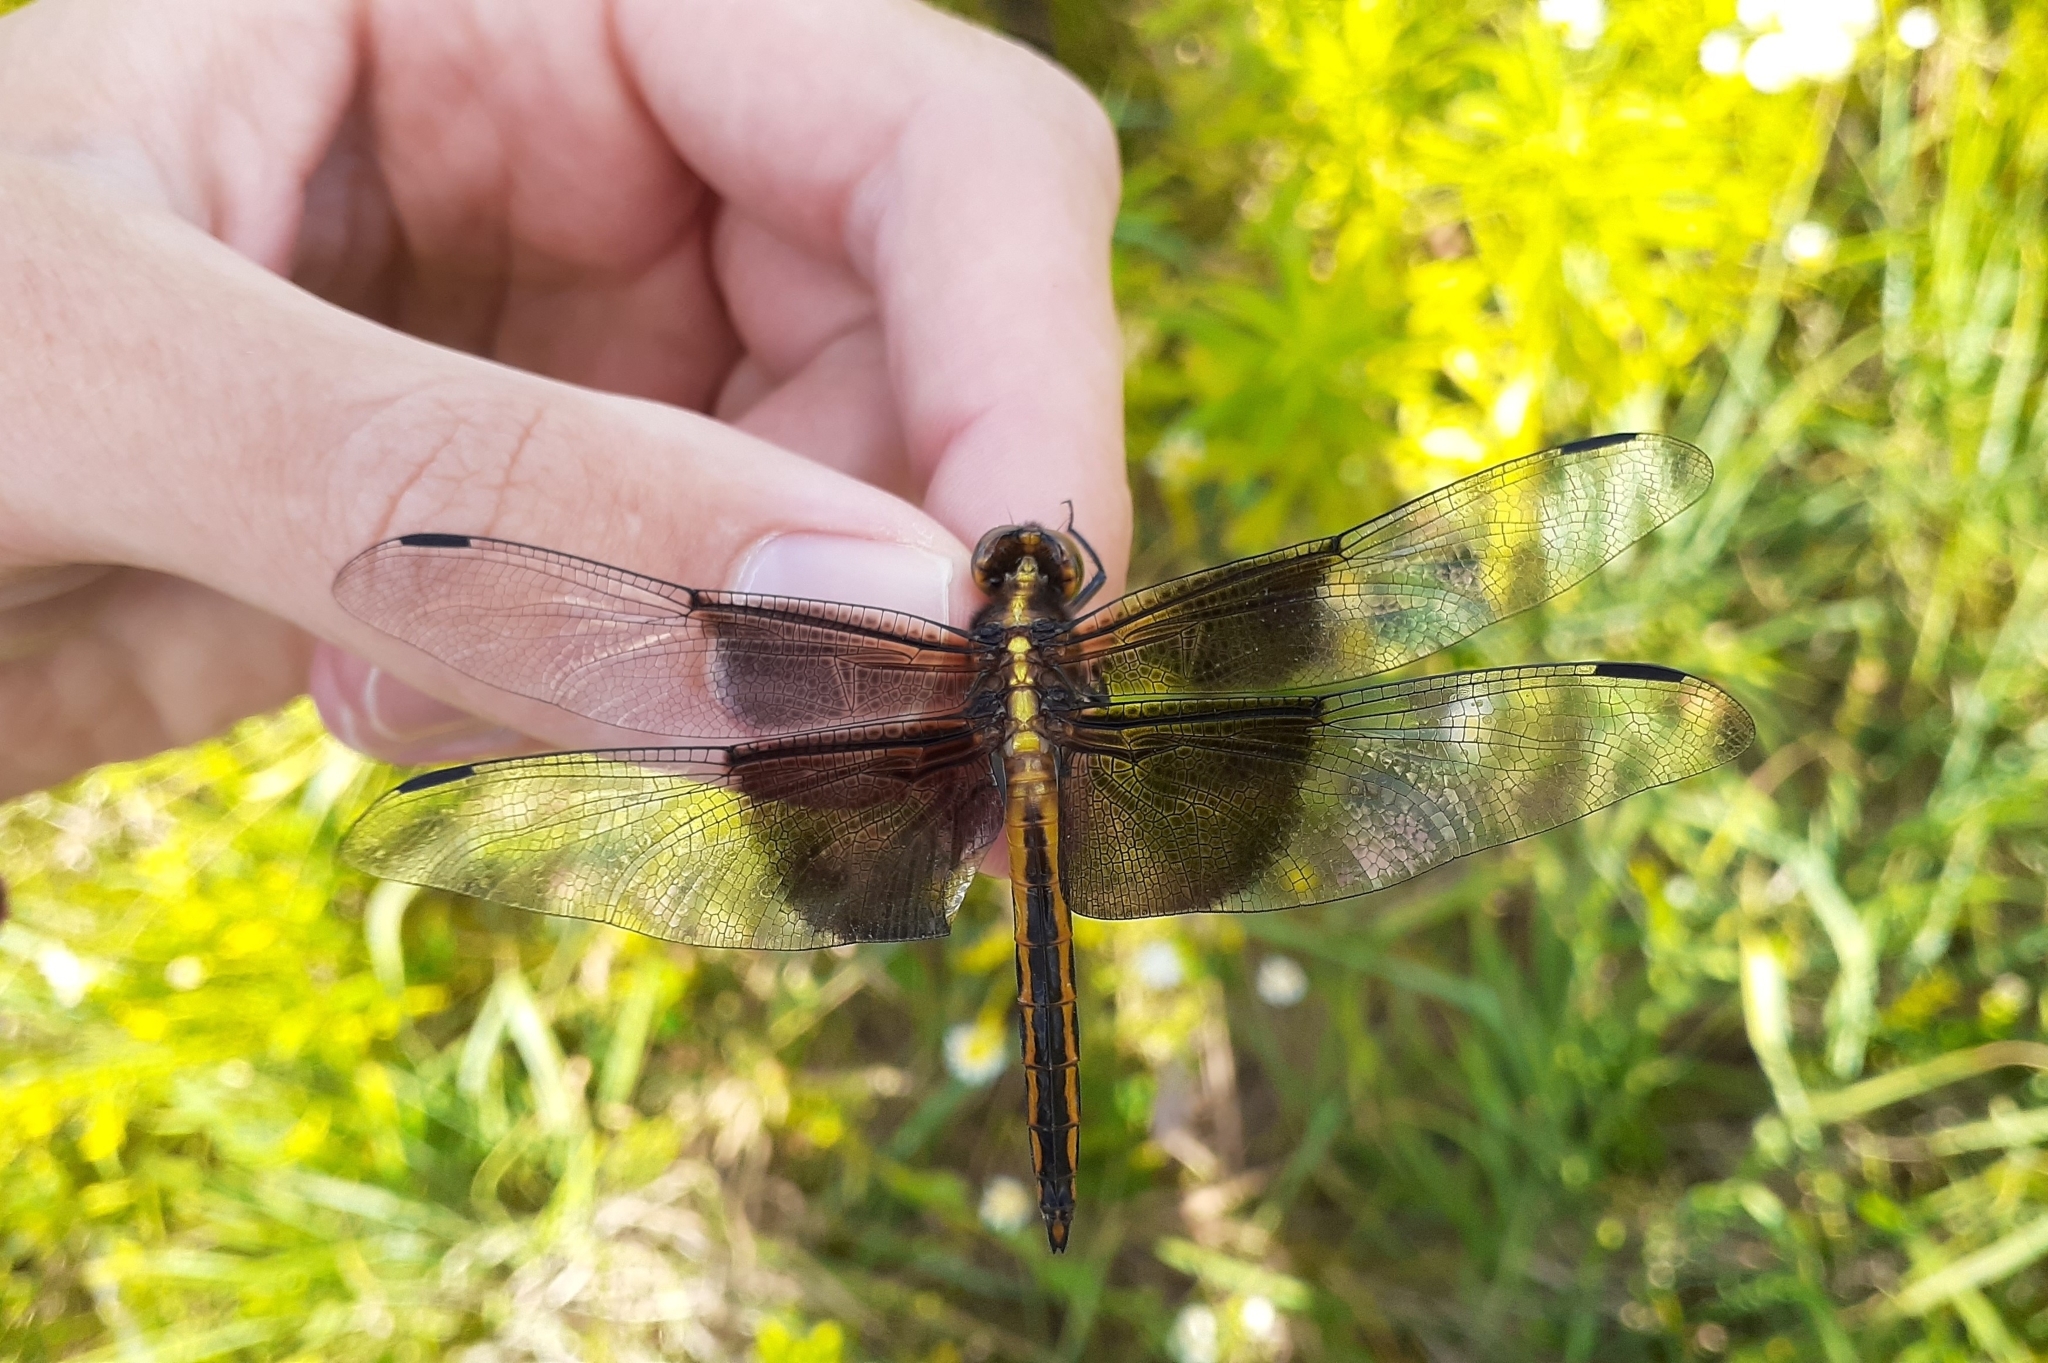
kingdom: Animalia
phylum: Arthropoda
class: Insecta
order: Odonata
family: Libellulidae
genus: Libellula
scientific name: Libellula luctuosa
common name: Widow skimmer
